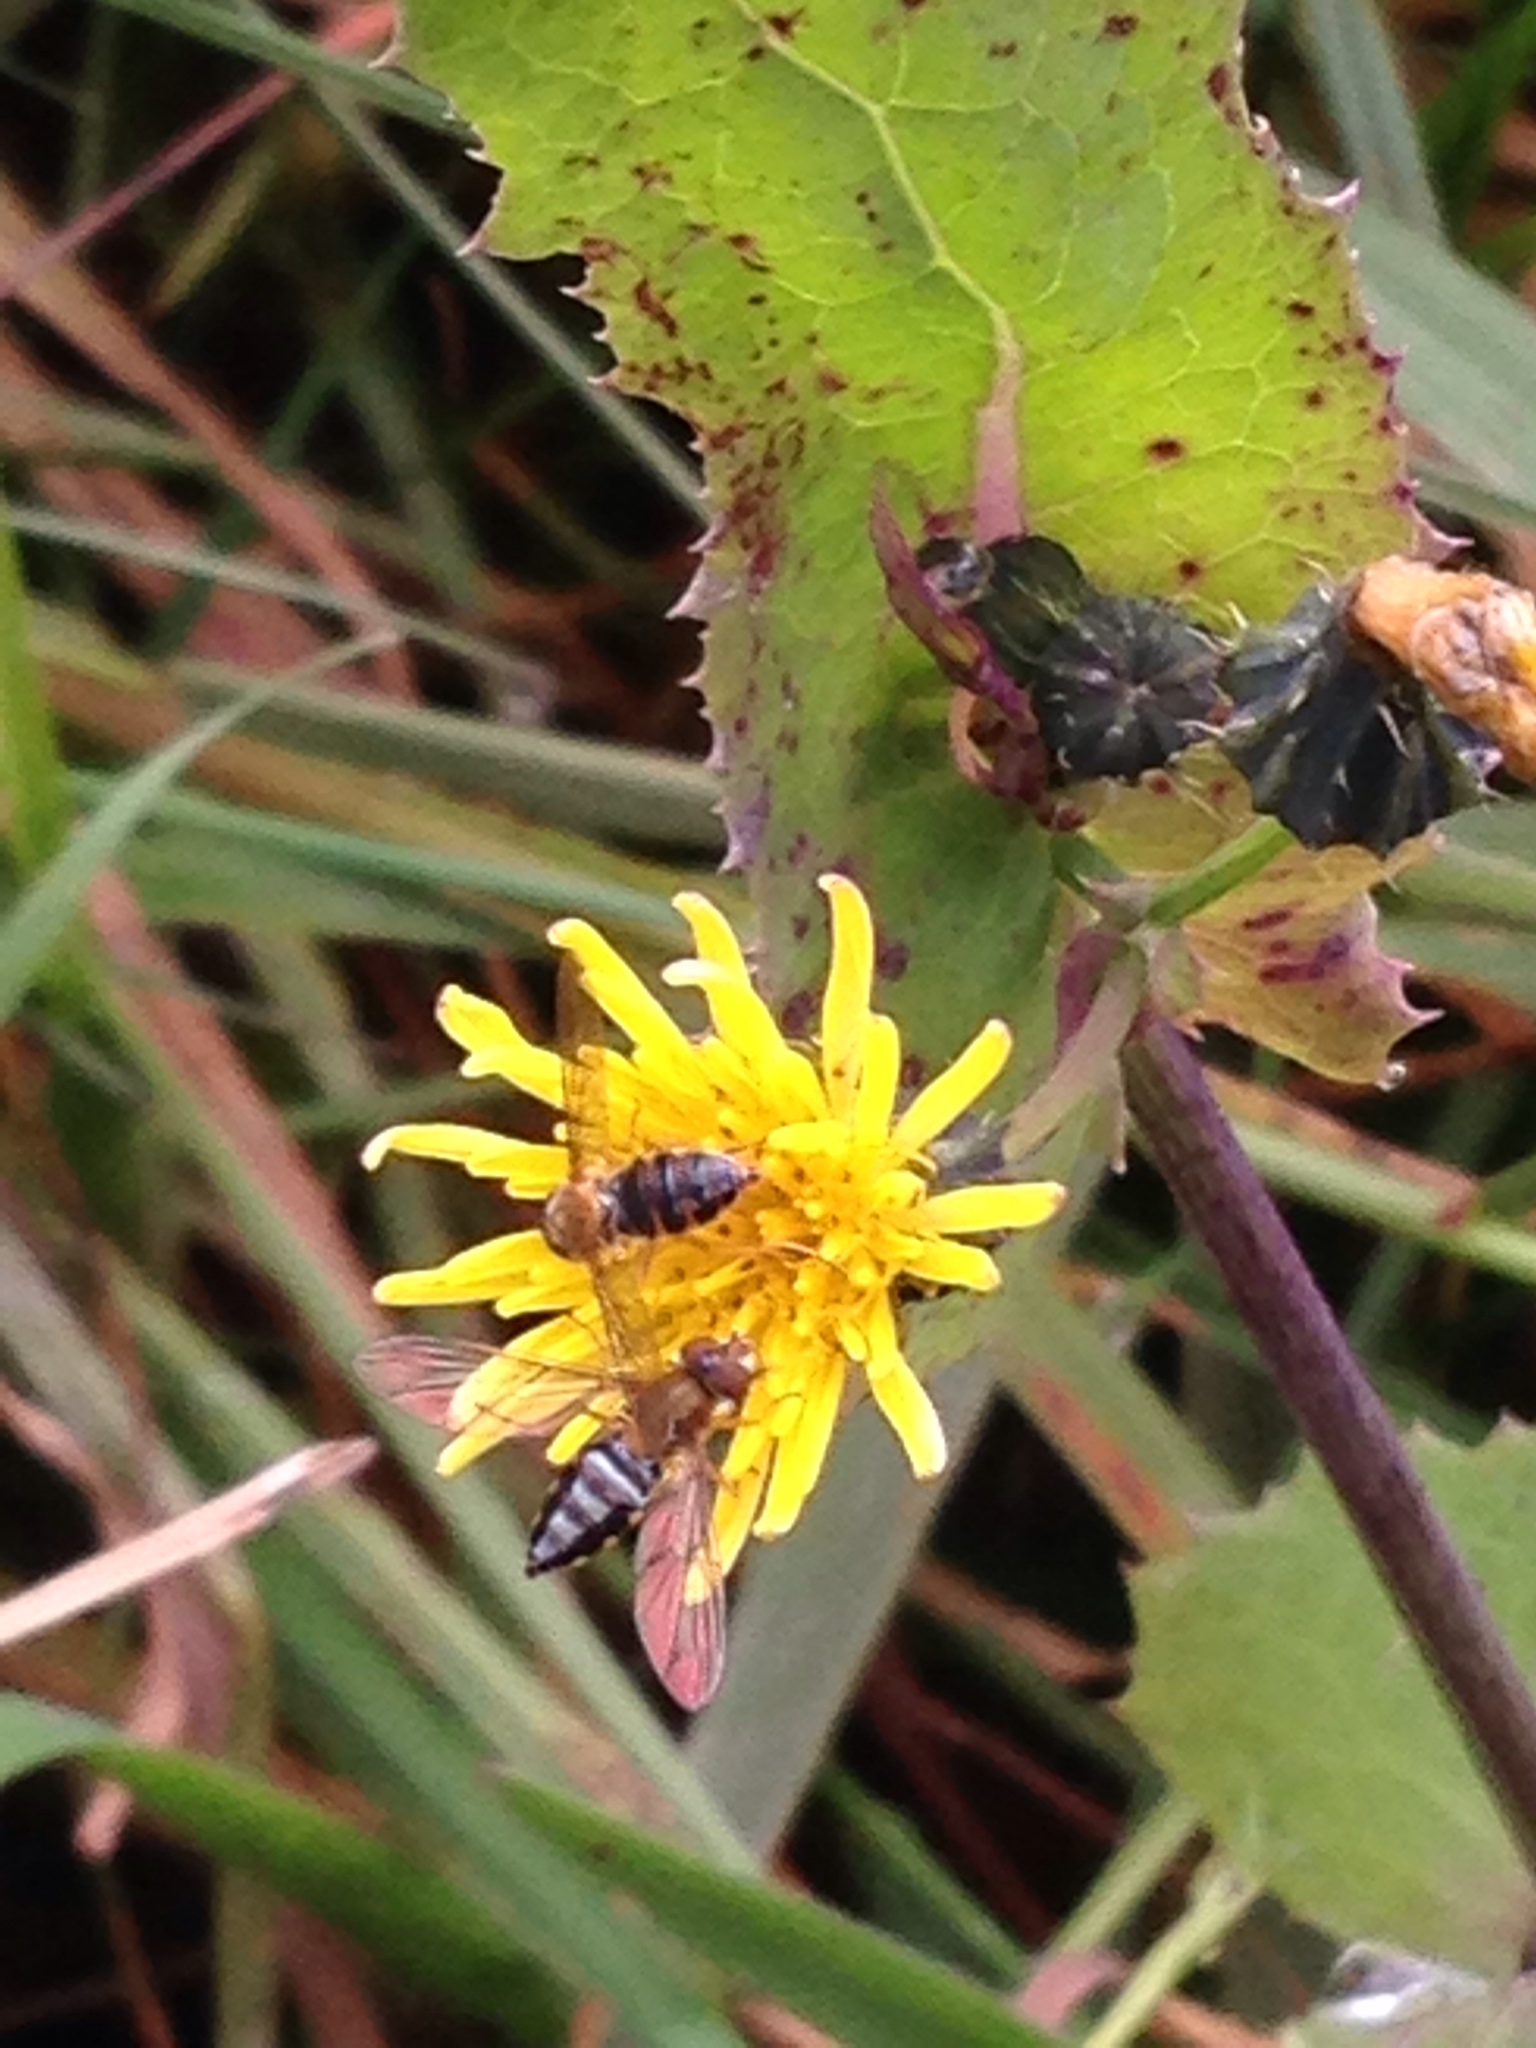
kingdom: Animalia
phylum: Arthropoda
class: Insecta
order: Diptera
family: Syrphidae
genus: Toxomerus
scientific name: Toxomerus paragrammus
